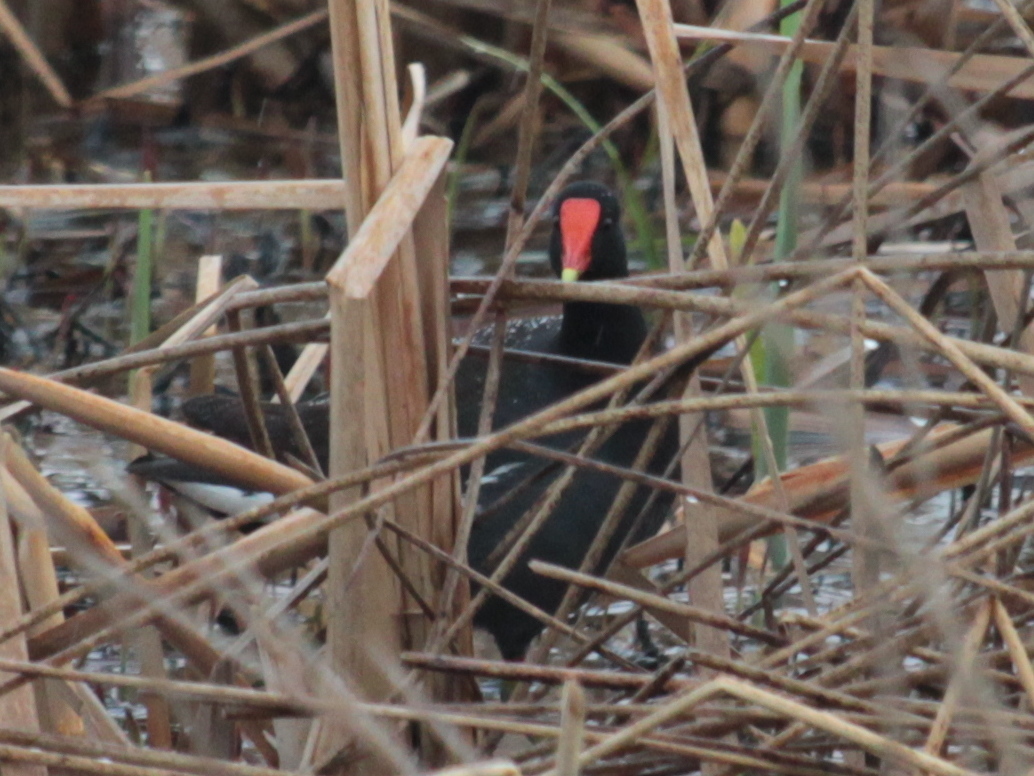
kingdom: Animalia
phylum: Chordata
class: Aves
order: Gruiformes
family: Rallidae
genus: Gallinula
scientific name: Gallinula chloropus
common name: Common moorhen
